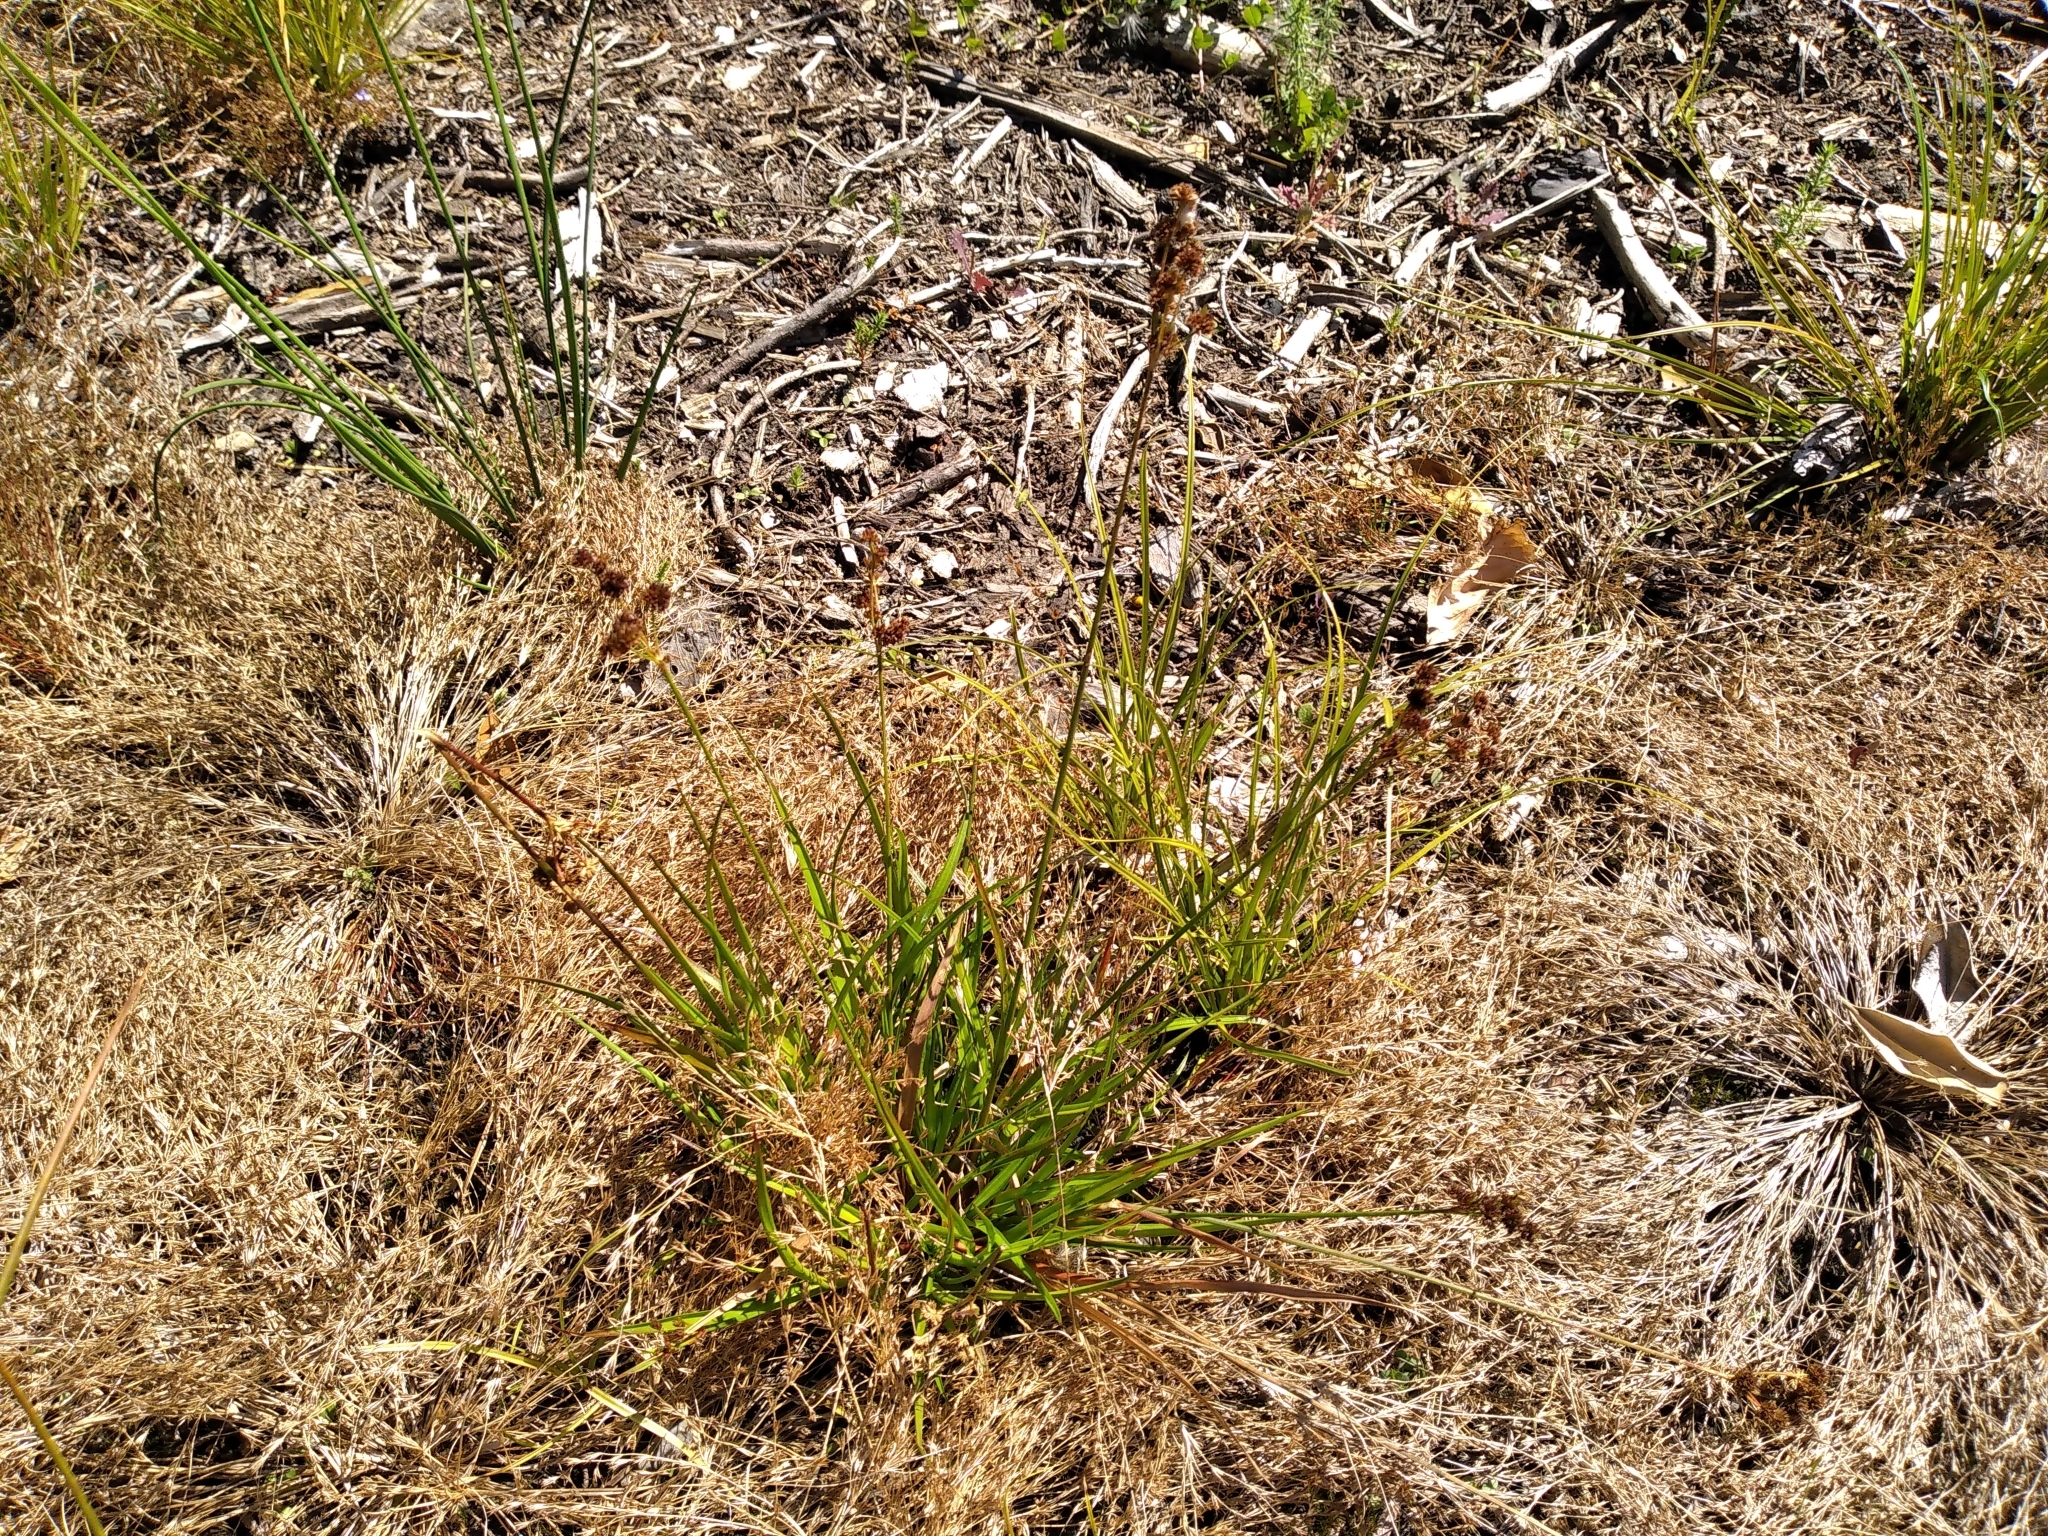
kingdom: Plantae
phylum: Tracheophyta
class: Liliopsida
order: Poales
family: Juncaceae
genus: Juncus
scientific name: Juncus planifolius
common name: Broadleaf rush
